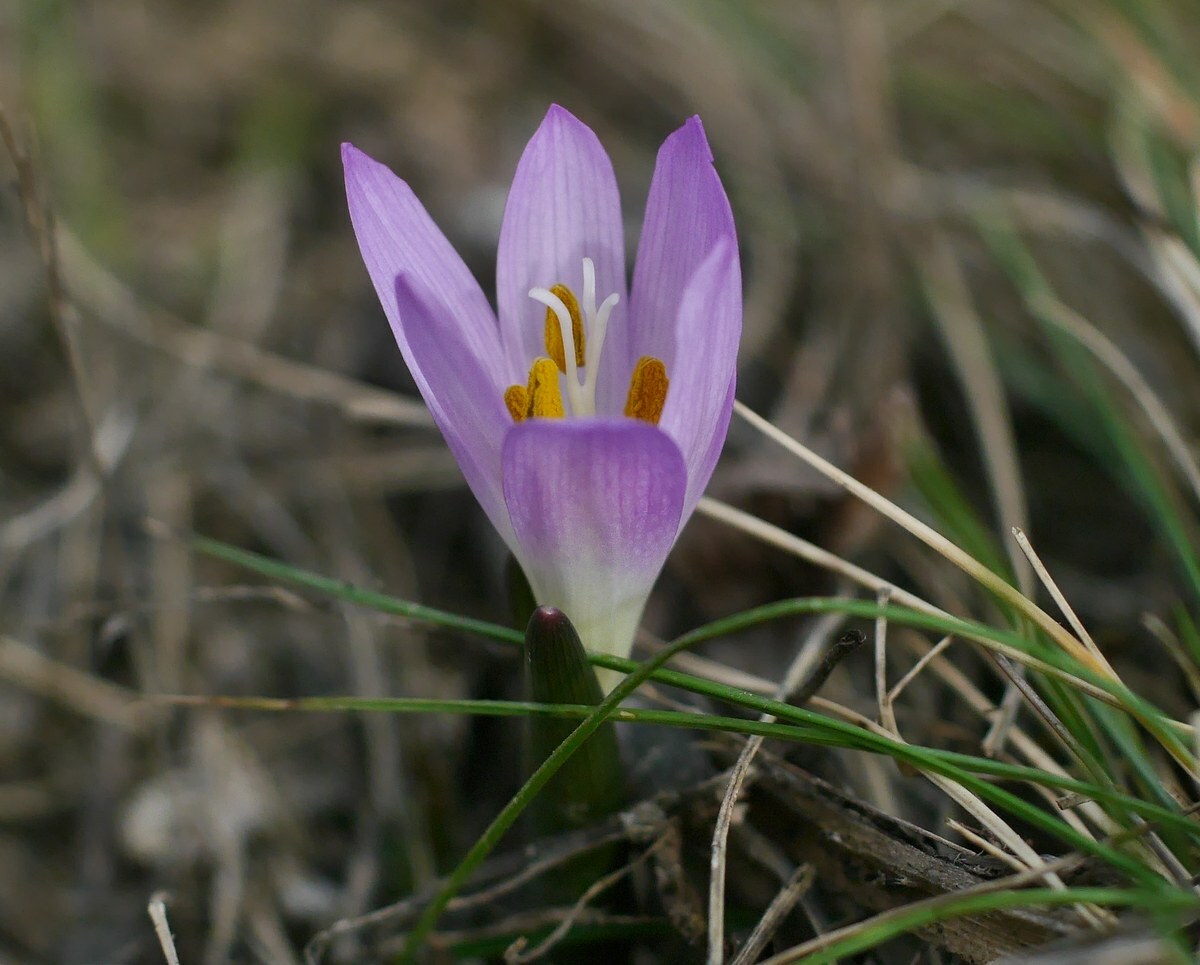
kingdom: Plantae
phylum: Tracheophyta
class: Liliopsida
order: Liliales
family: Colchicaceae
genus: Colchicum
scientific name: Colchicum bulbocodium
